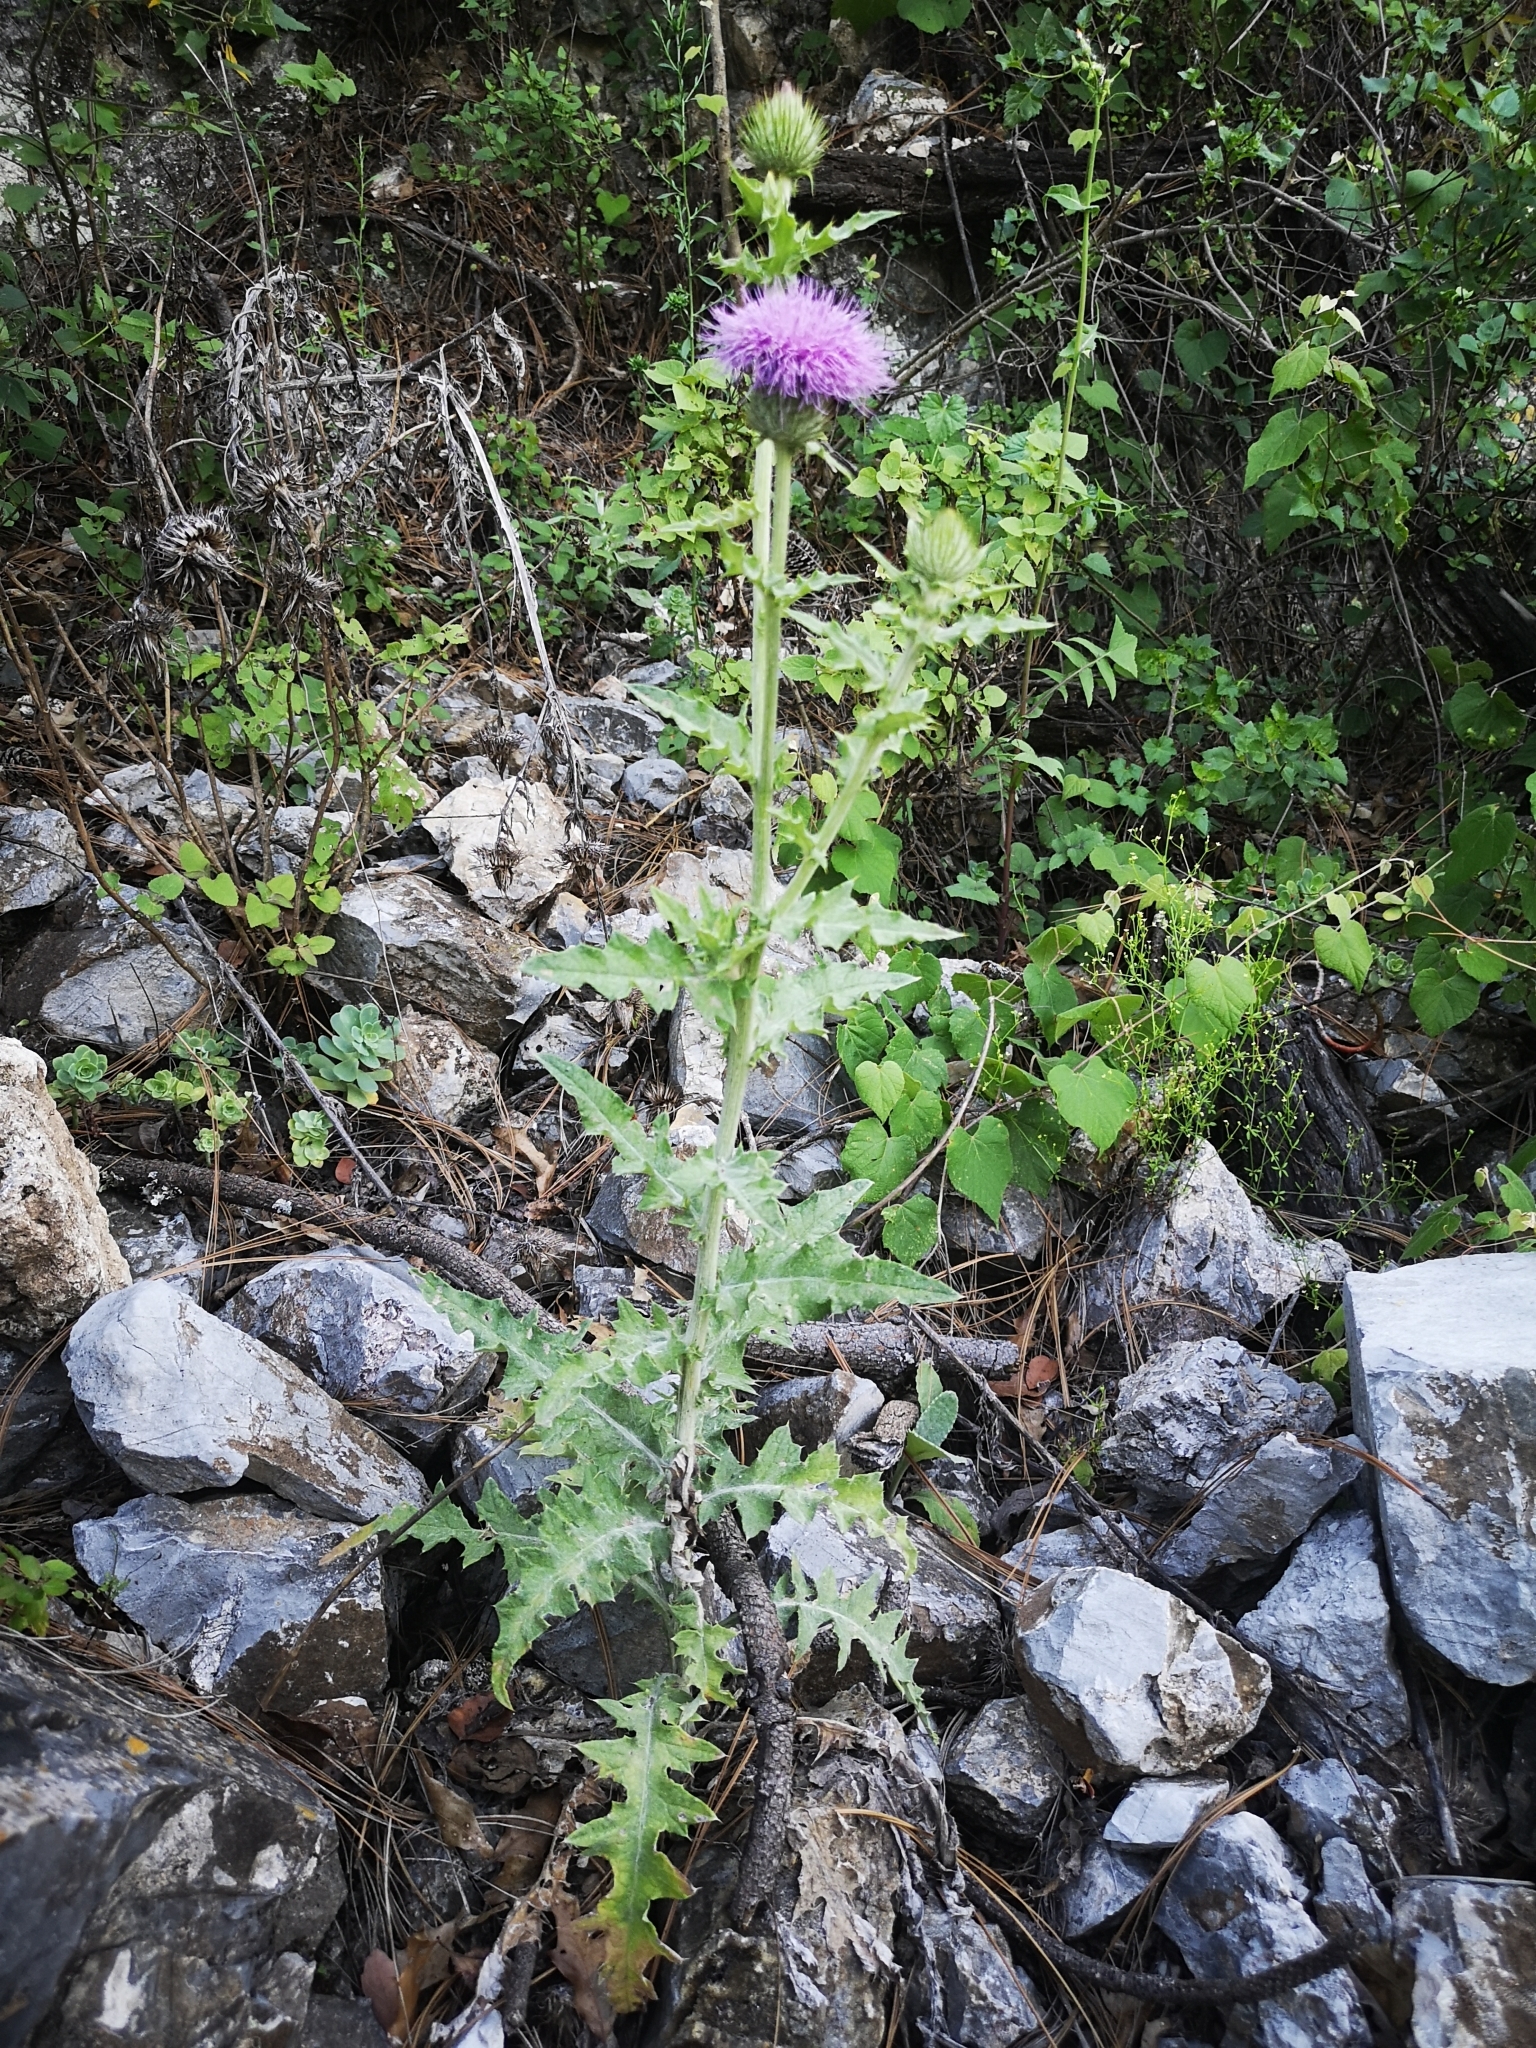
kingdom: Plantae
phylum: Tracheophyta
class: Magnoliopsida
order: Asterales
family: Asteraceae
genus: Cirsium
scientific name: Cirsium texanum
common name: Texas purple thistle
